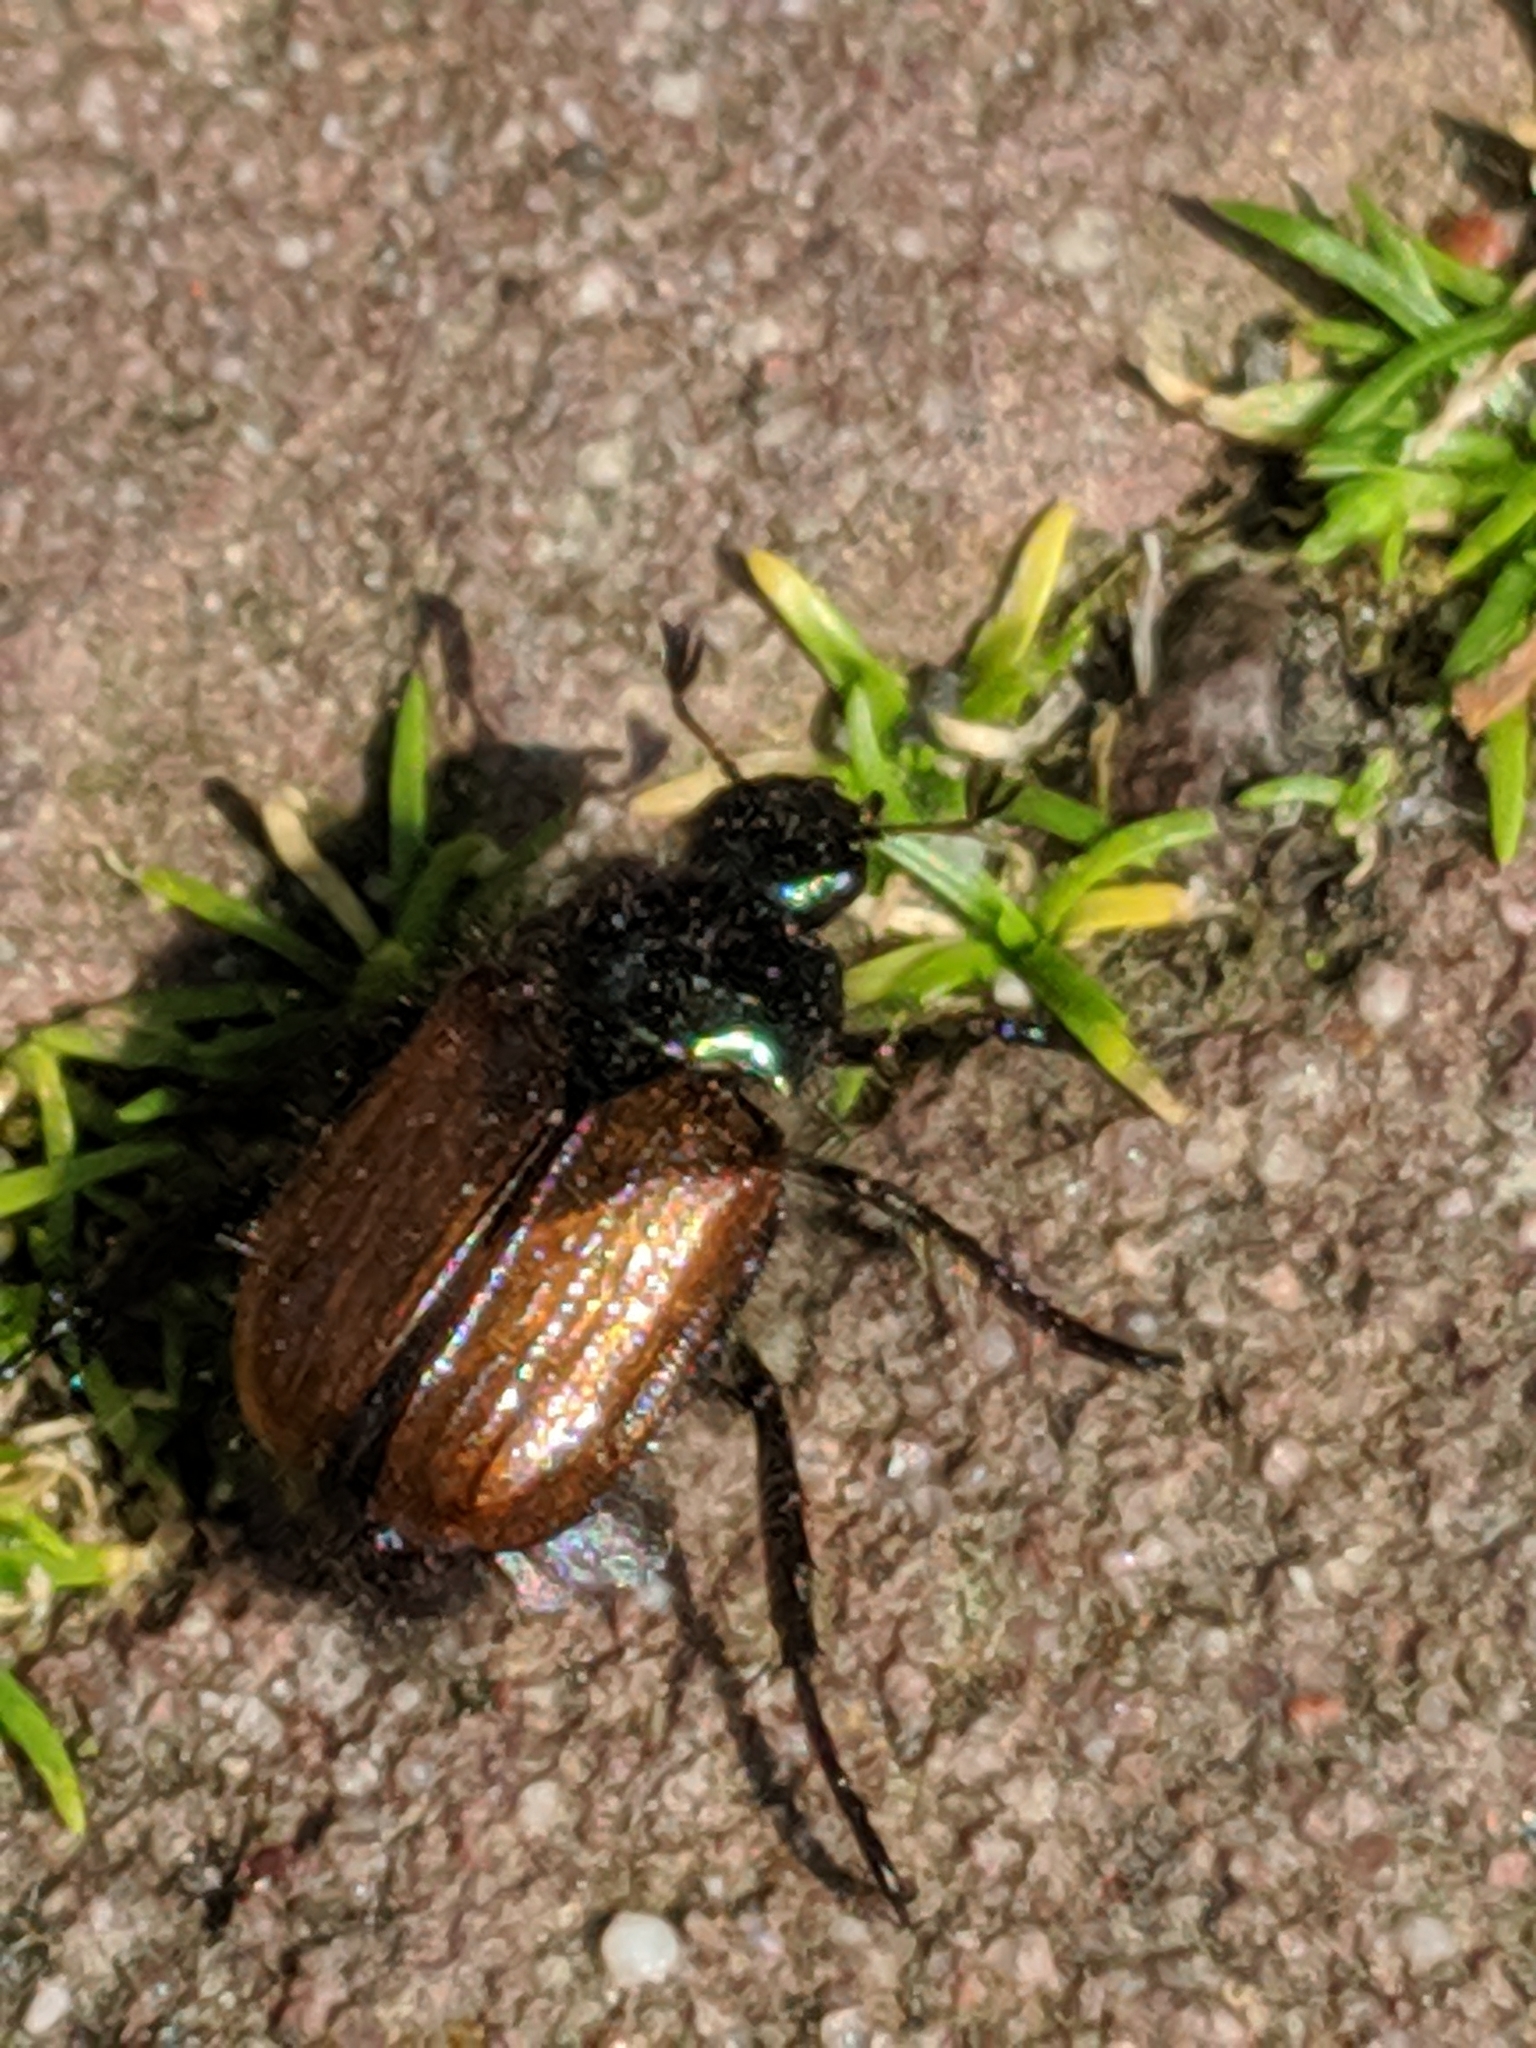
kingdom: Animalia
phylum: Arthropoda
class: Insecta
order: Coleoptera
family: Scarabaeidae
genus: Phyllopertha
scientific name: Phyllopertha horticola
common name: Garden chafer
